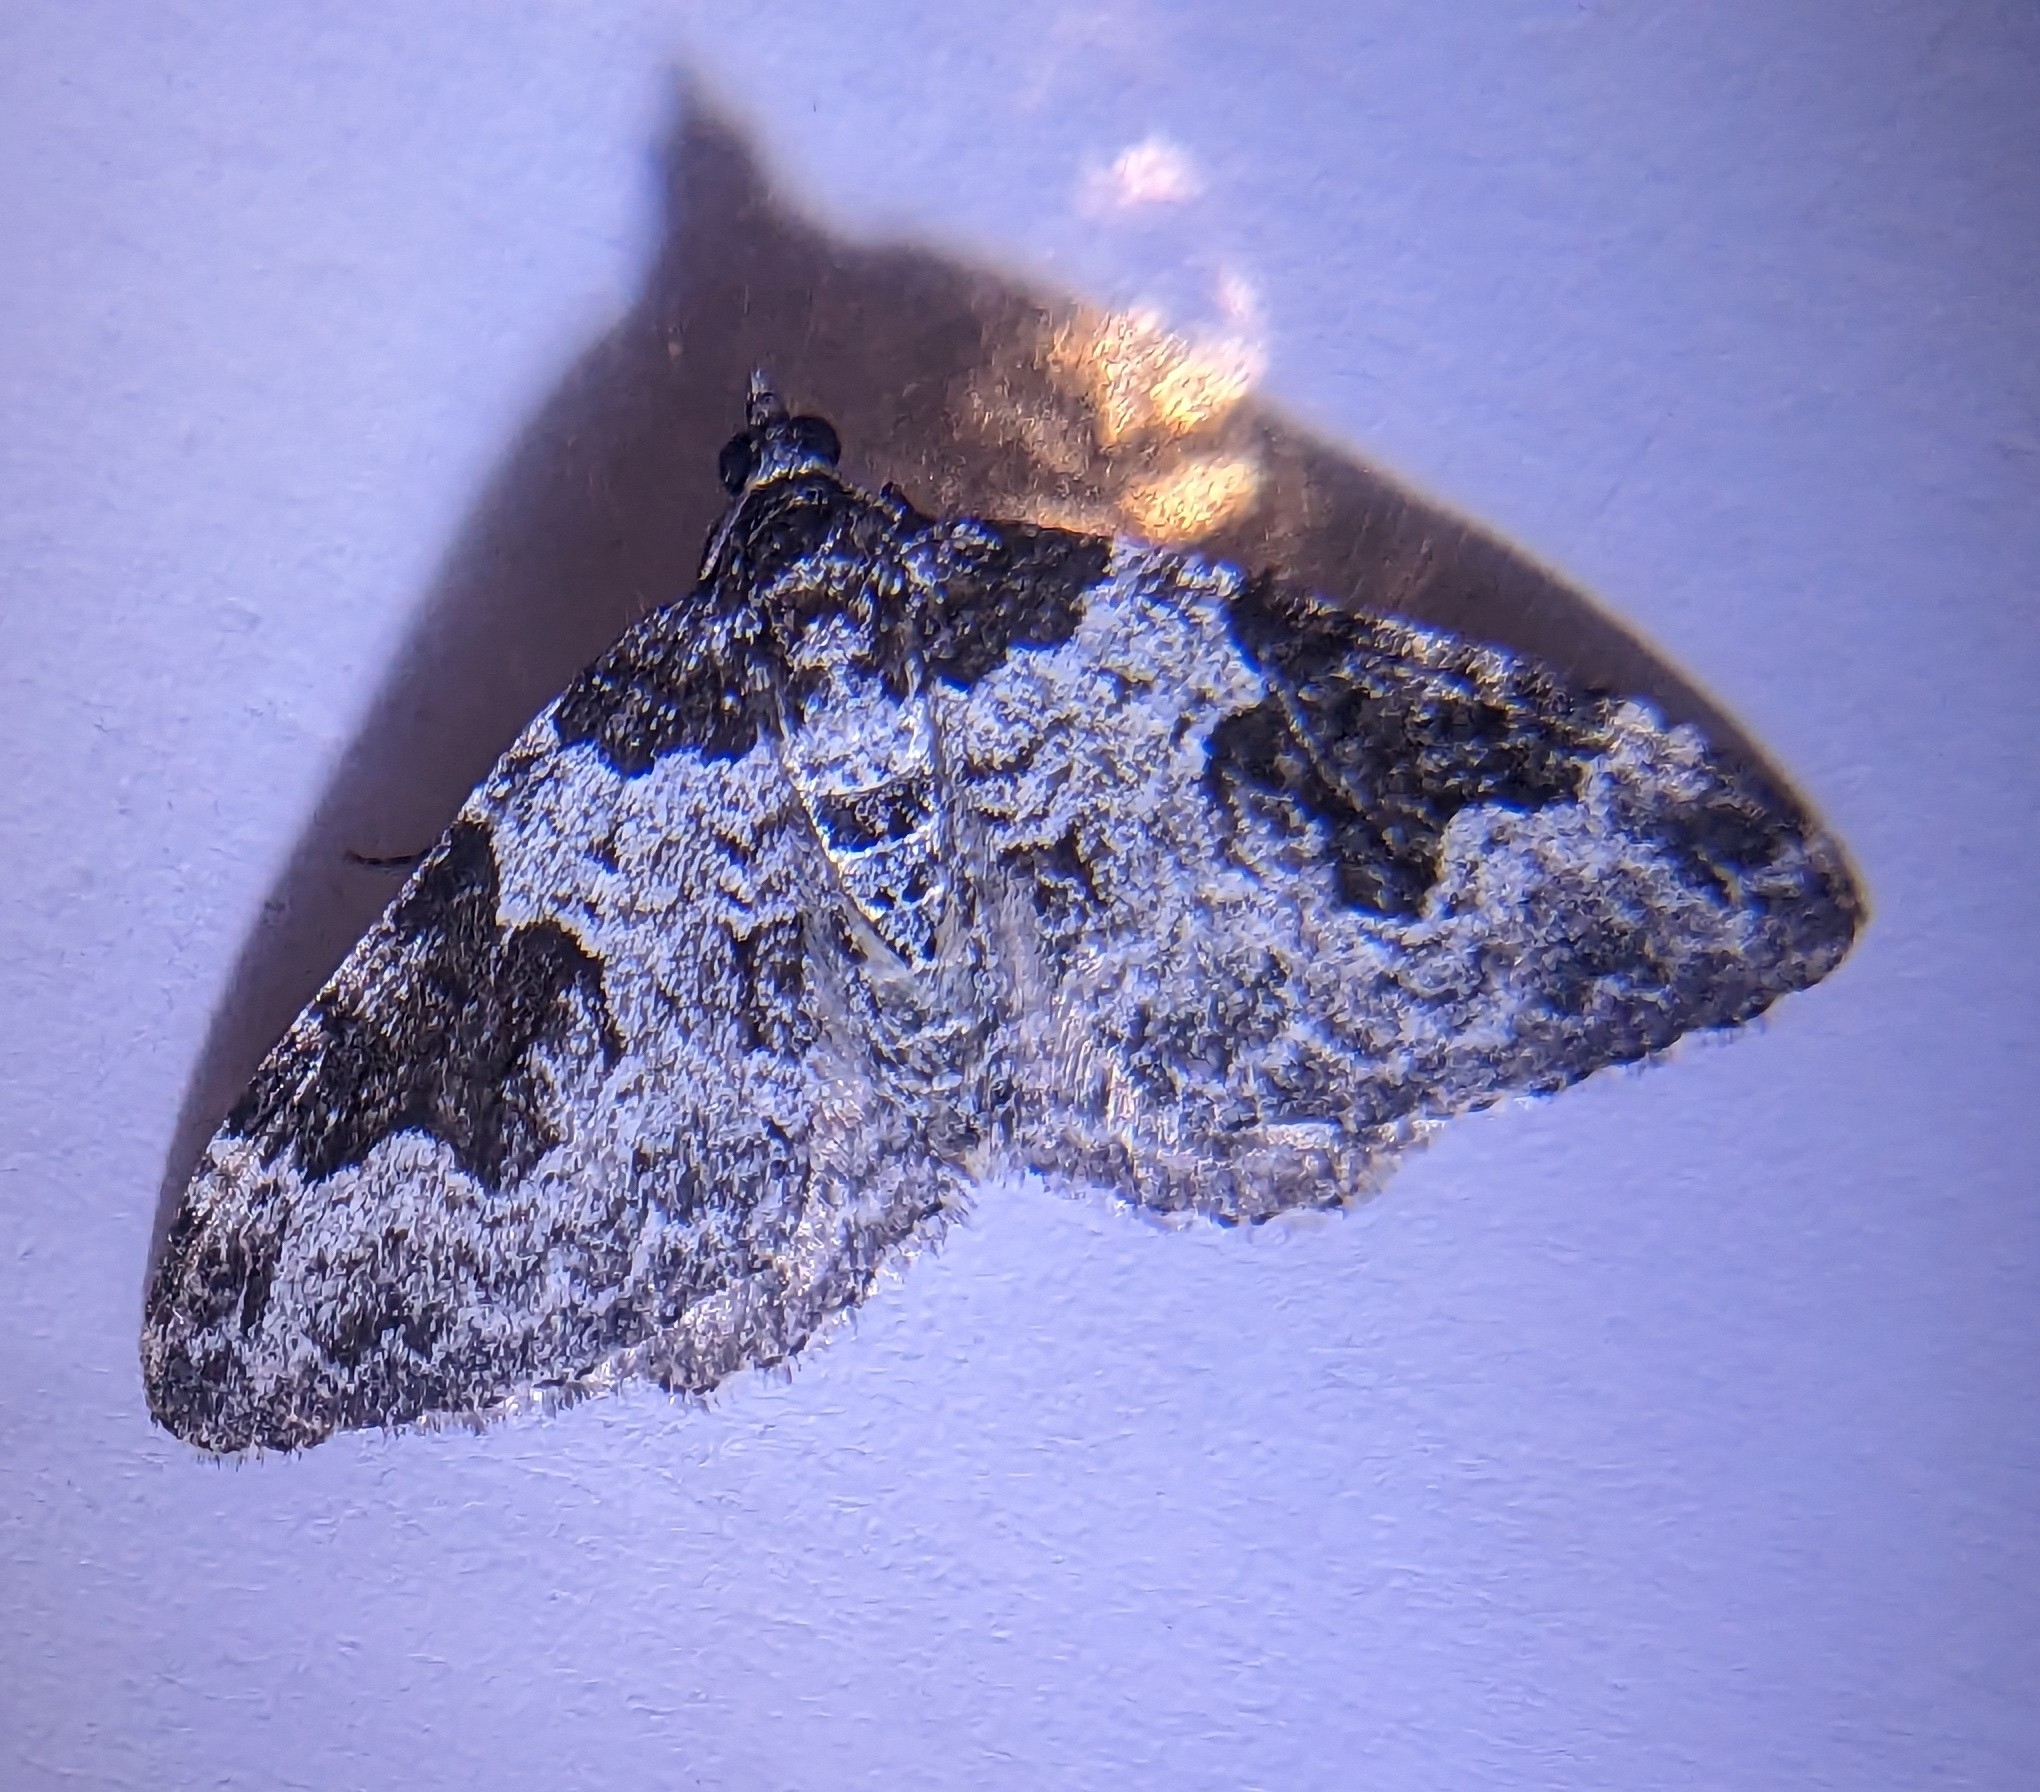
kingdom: Animalia
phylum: Arthropoda
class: Insecta
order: Lepidoptera
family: Geometridae
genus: Xanthorhoe
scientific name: Xanthorhoe fluctuata
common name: Garden carpet
